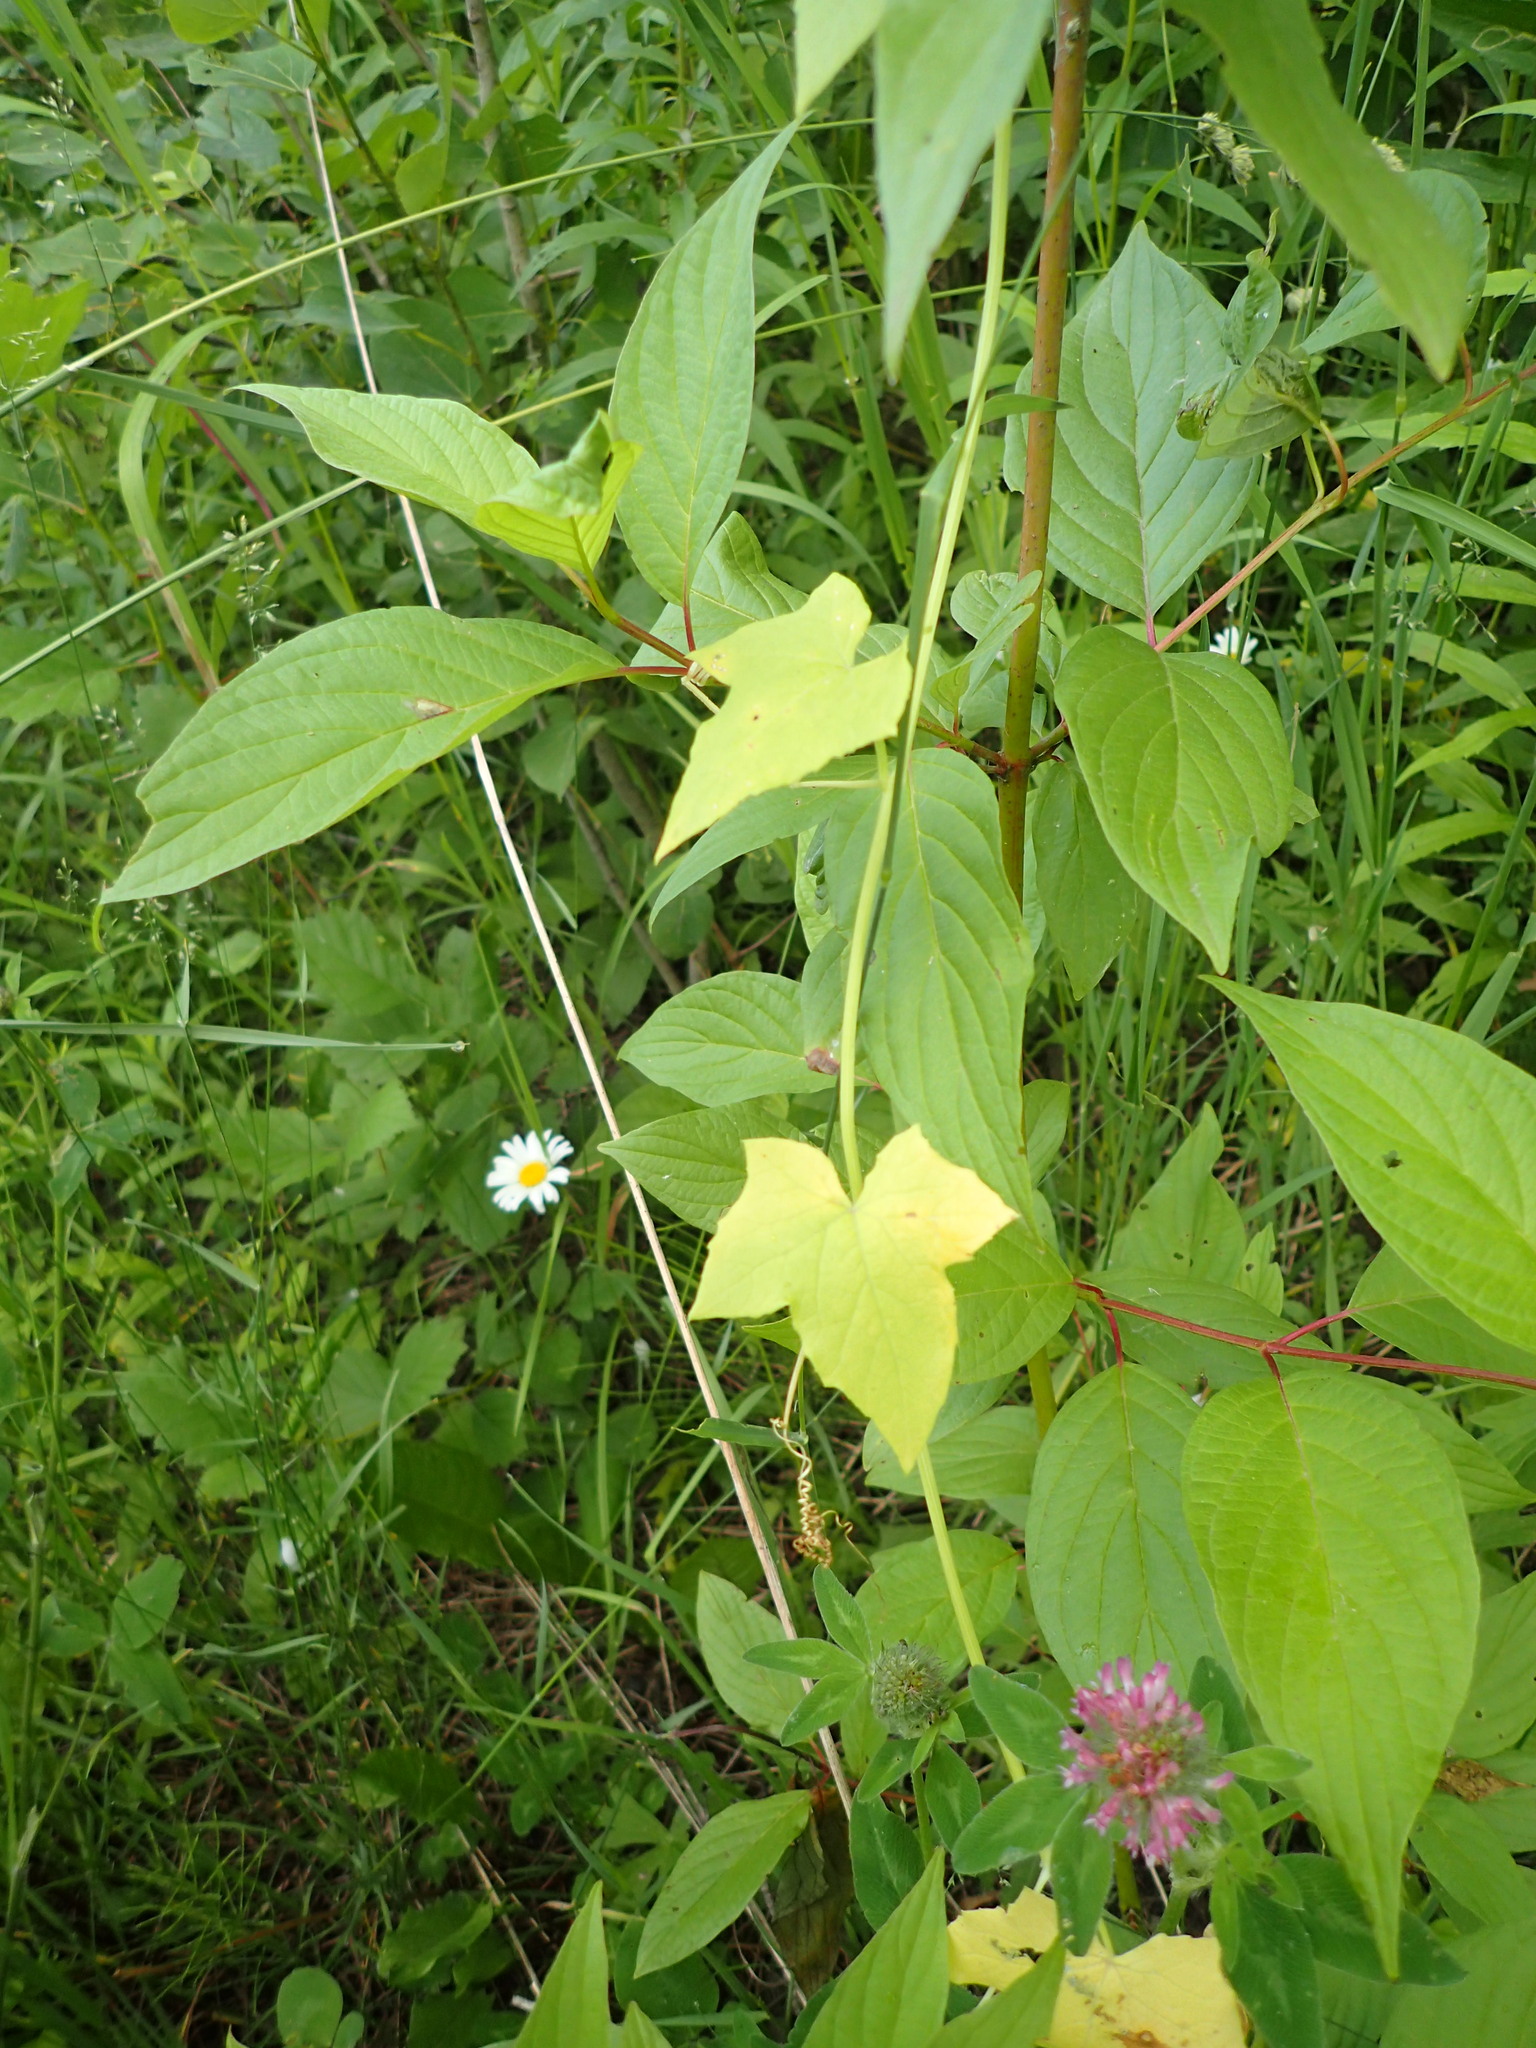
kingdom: Plantae
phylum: Tracheophyta
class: Magnoliopsida
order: Cucurbitales
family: Cucurbitaceae
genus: Echinocystis
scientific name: Echinocystis lobata
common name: Wild cucumber
